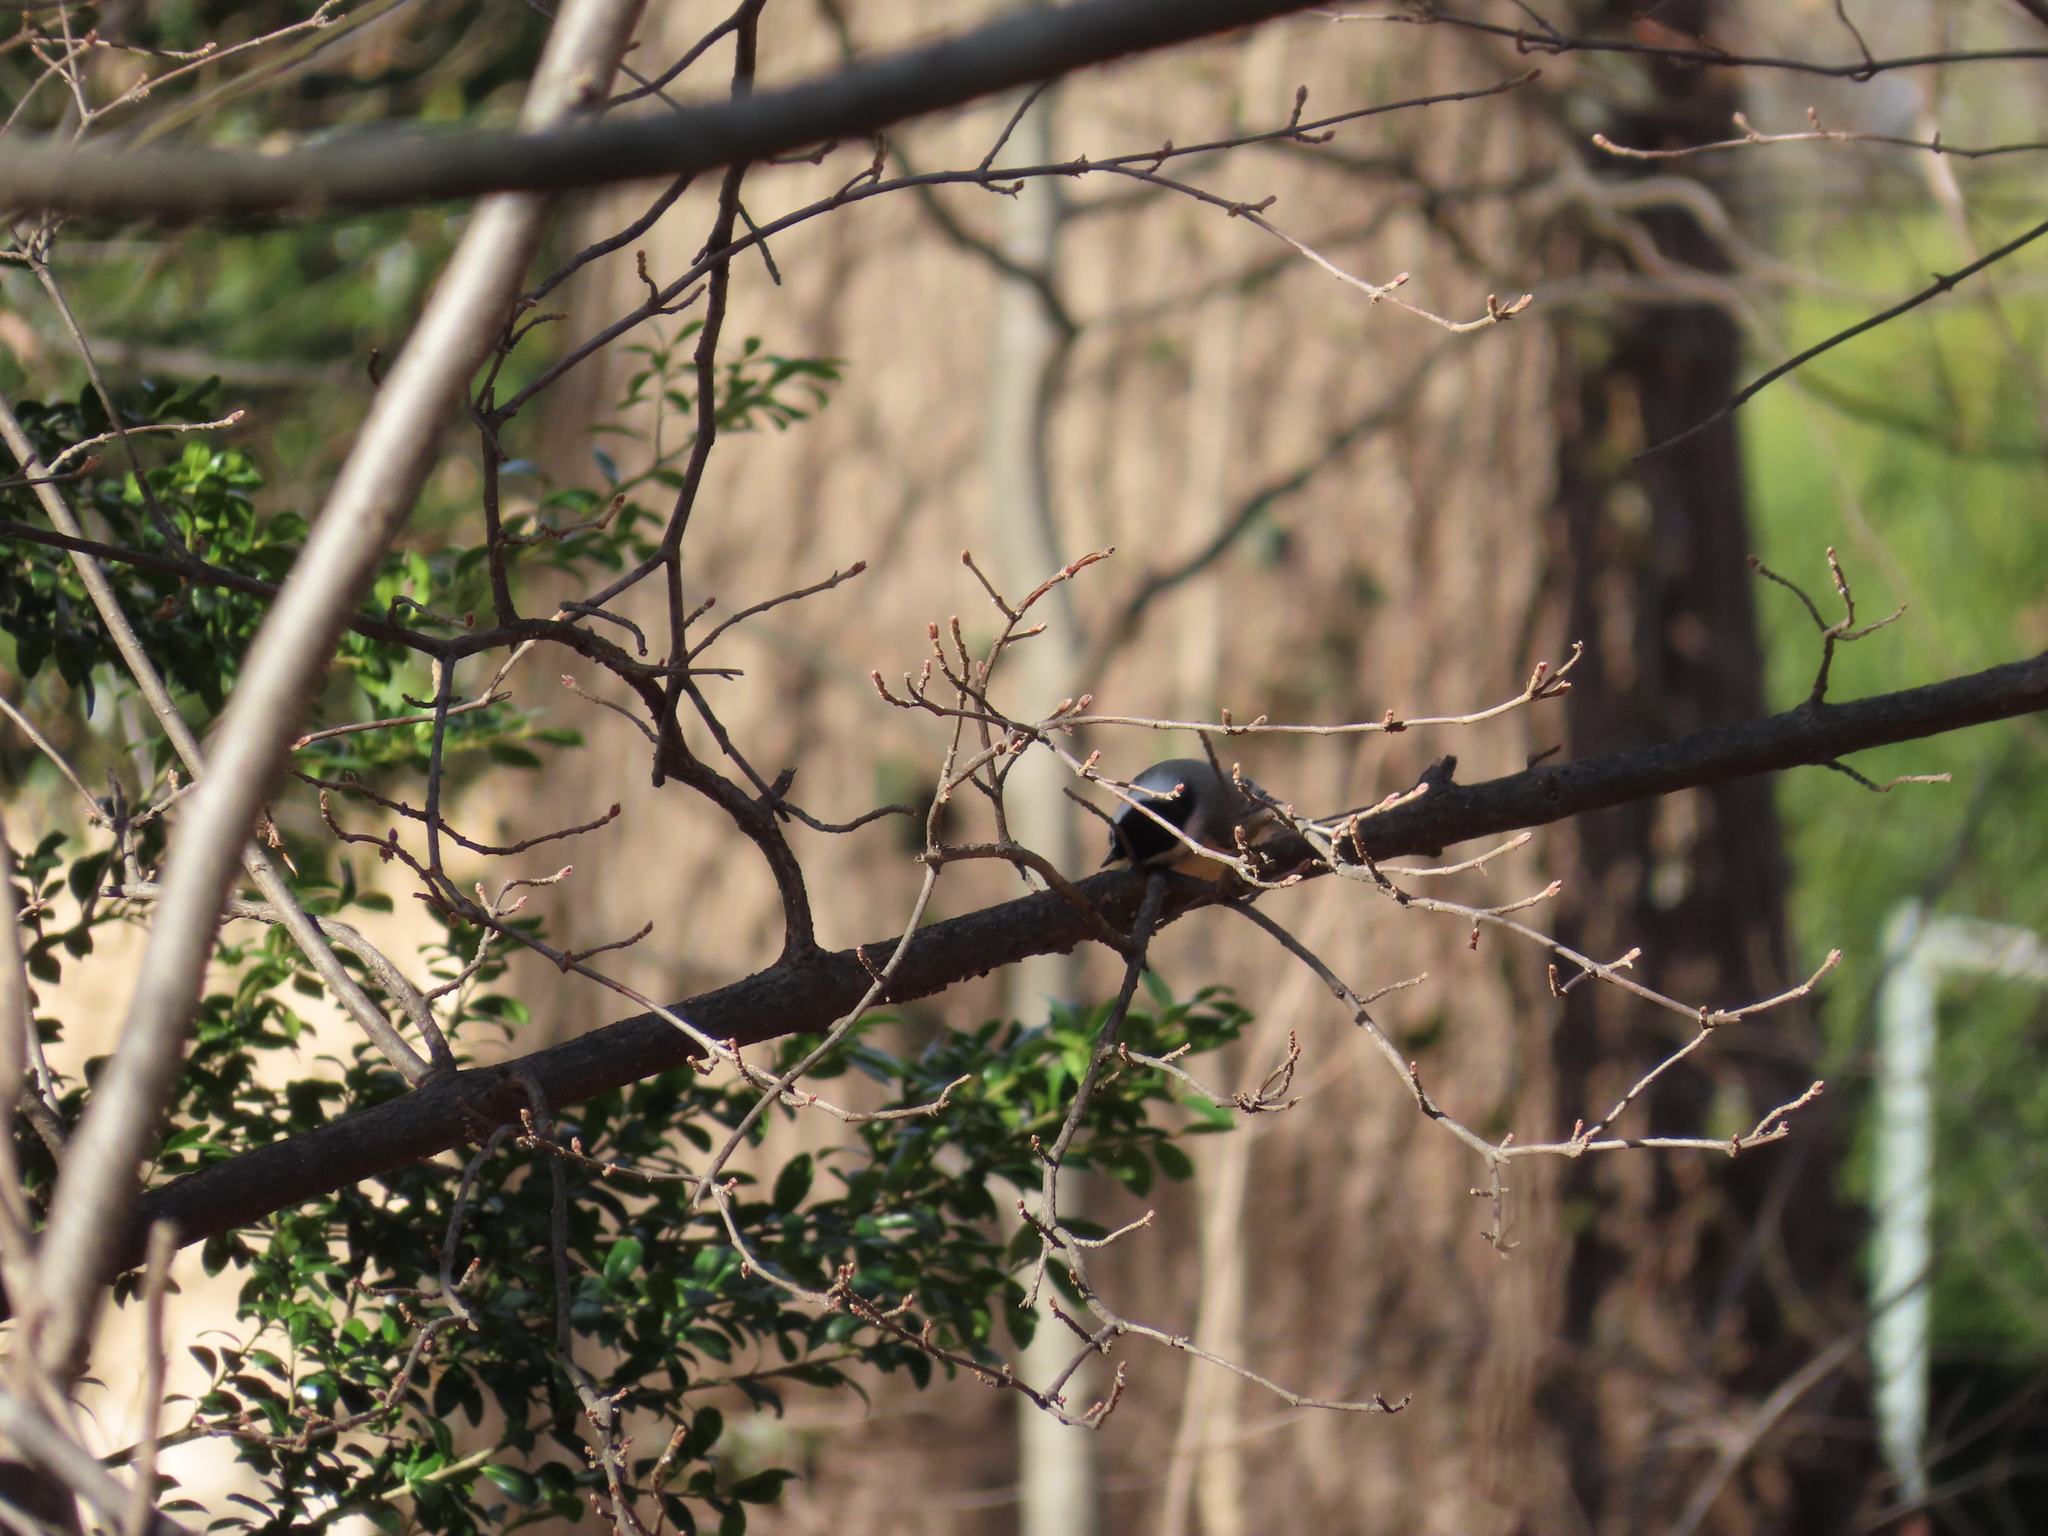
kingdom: Animalia
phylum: Chordata
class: Aves
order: Passeriformes
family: Paridae
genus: Poecile
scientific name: Poecile carolinensis
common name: Carolina chickadee
